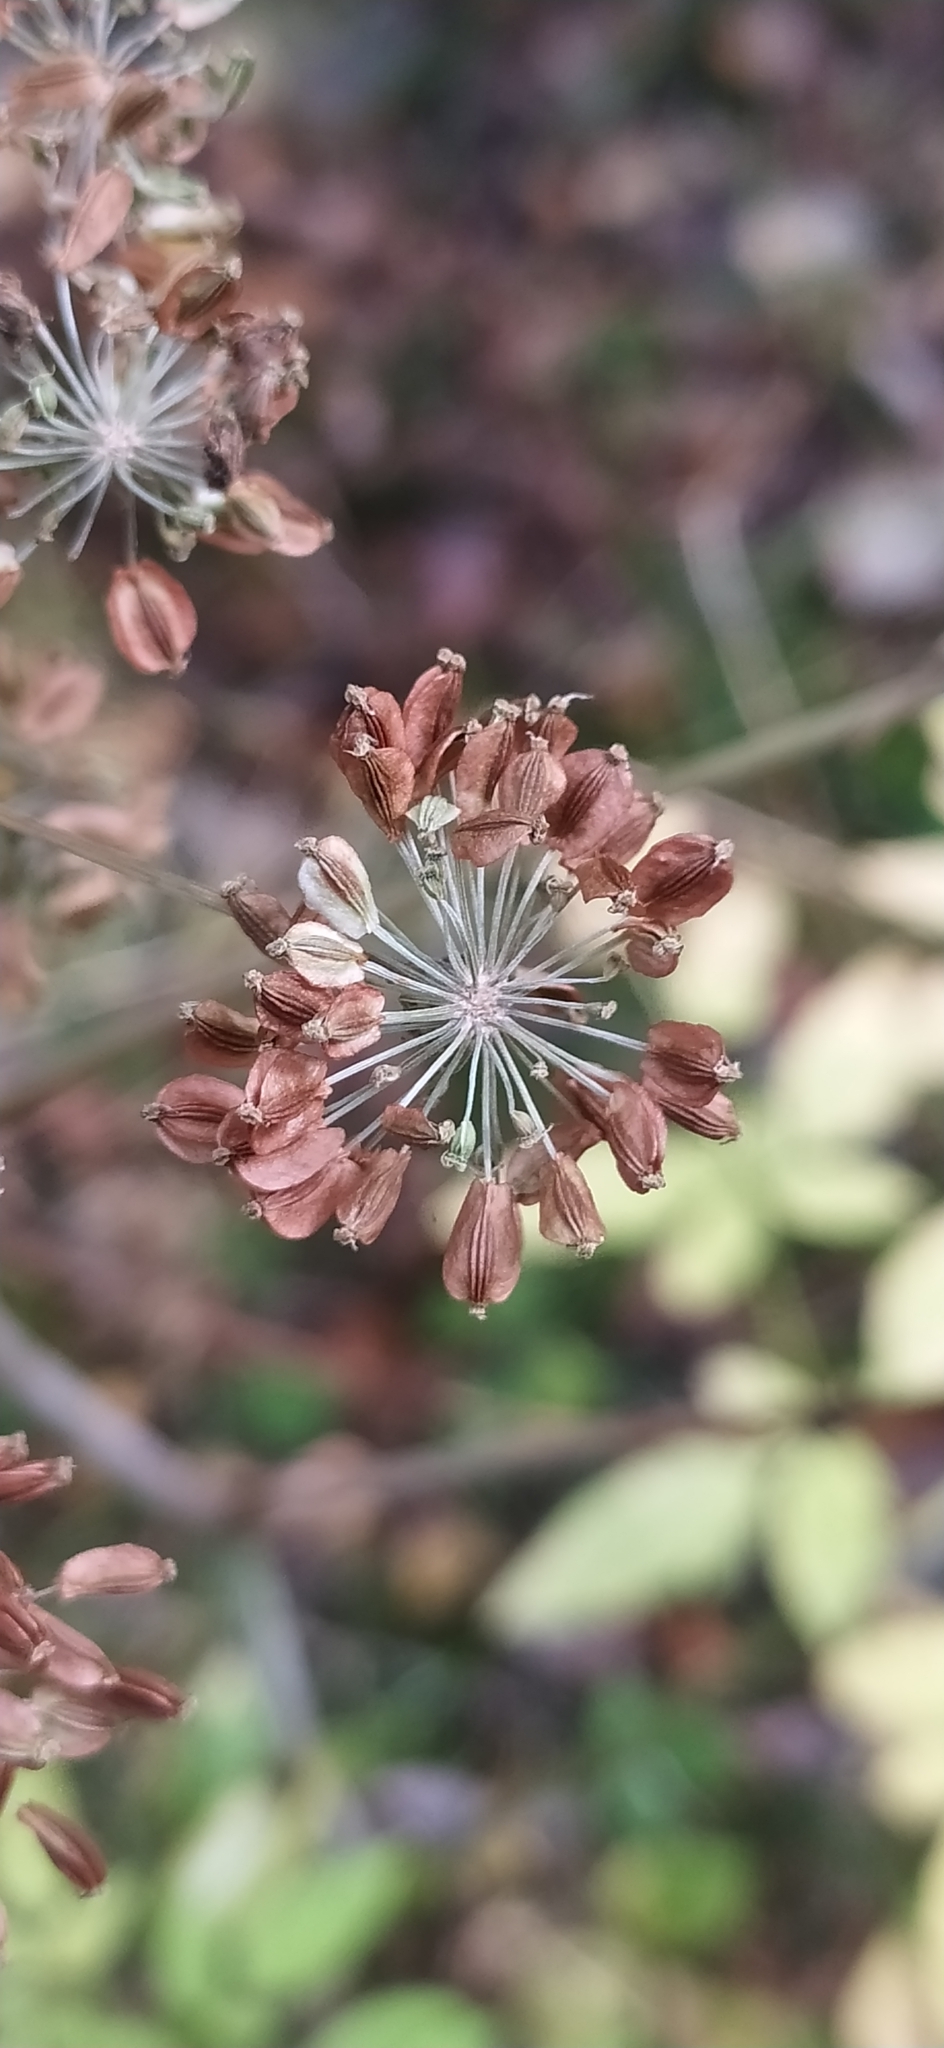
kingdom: Plantae
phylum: Tracheophyta
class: Magnoliopsida
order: Apiales
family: Apiaceae
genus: Angelica
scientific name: Angelica sylvestris
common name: Wild angelica
